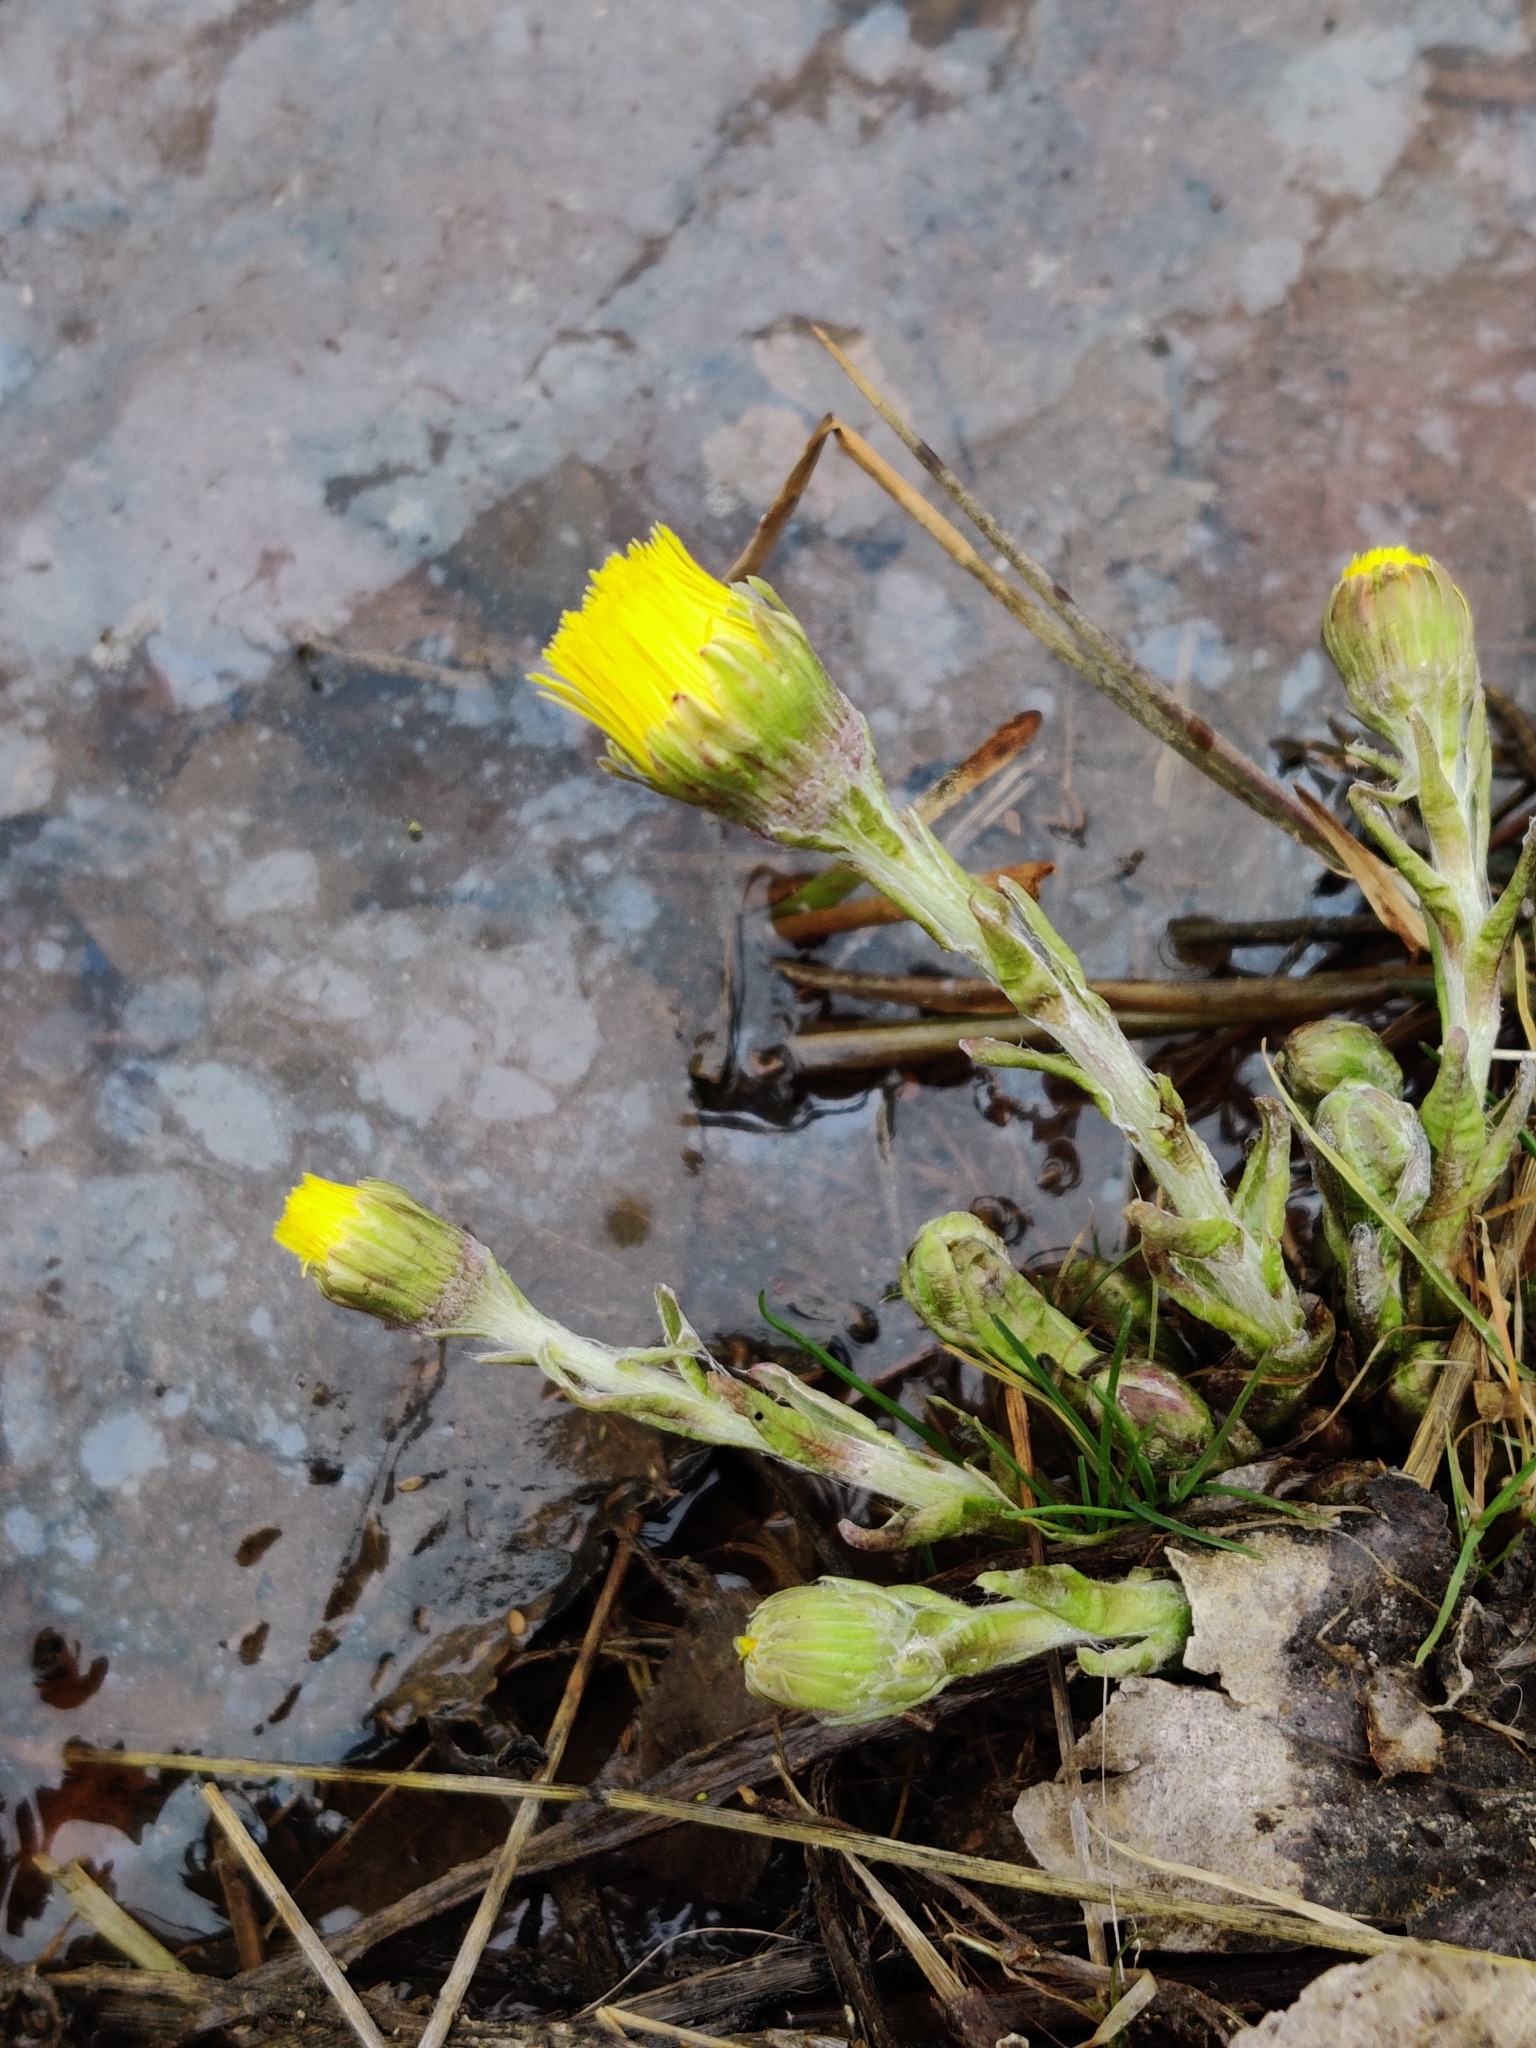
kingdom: Plantae
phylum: Tracheophyta
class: Magnoliopsida
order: Asterales
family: Asteraceae
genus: Tussilago
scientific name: Tussilago farfara
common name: Coltsfoot
